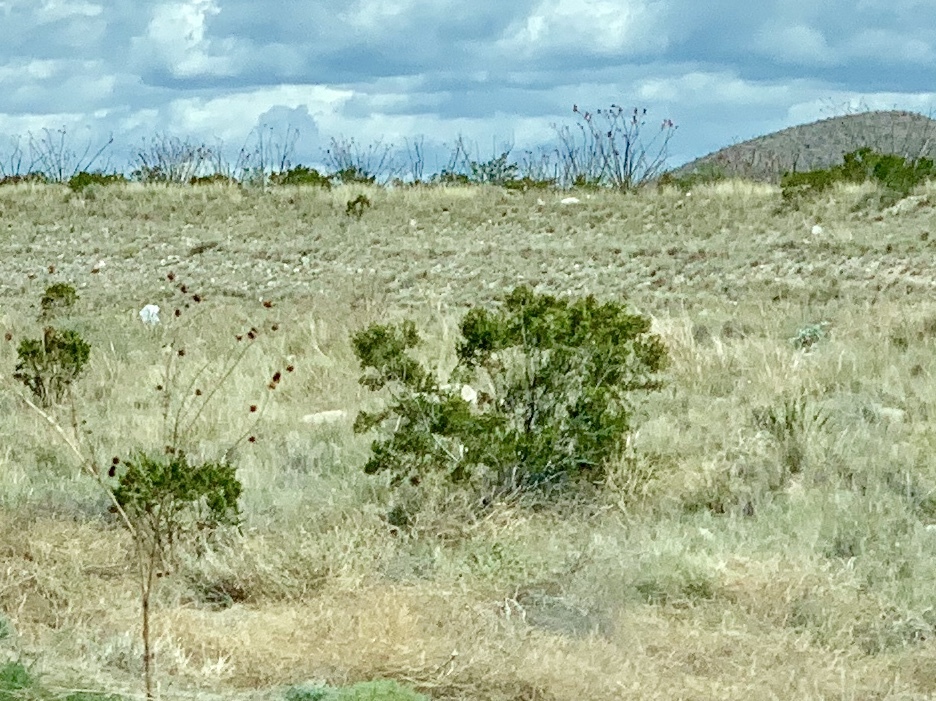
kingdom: Plantae
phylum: Tracheophyta
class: Magnoliopsida
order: Zygophyllales
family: Zygophyllaceae
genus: Larrea
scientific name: Larrea tridentata
